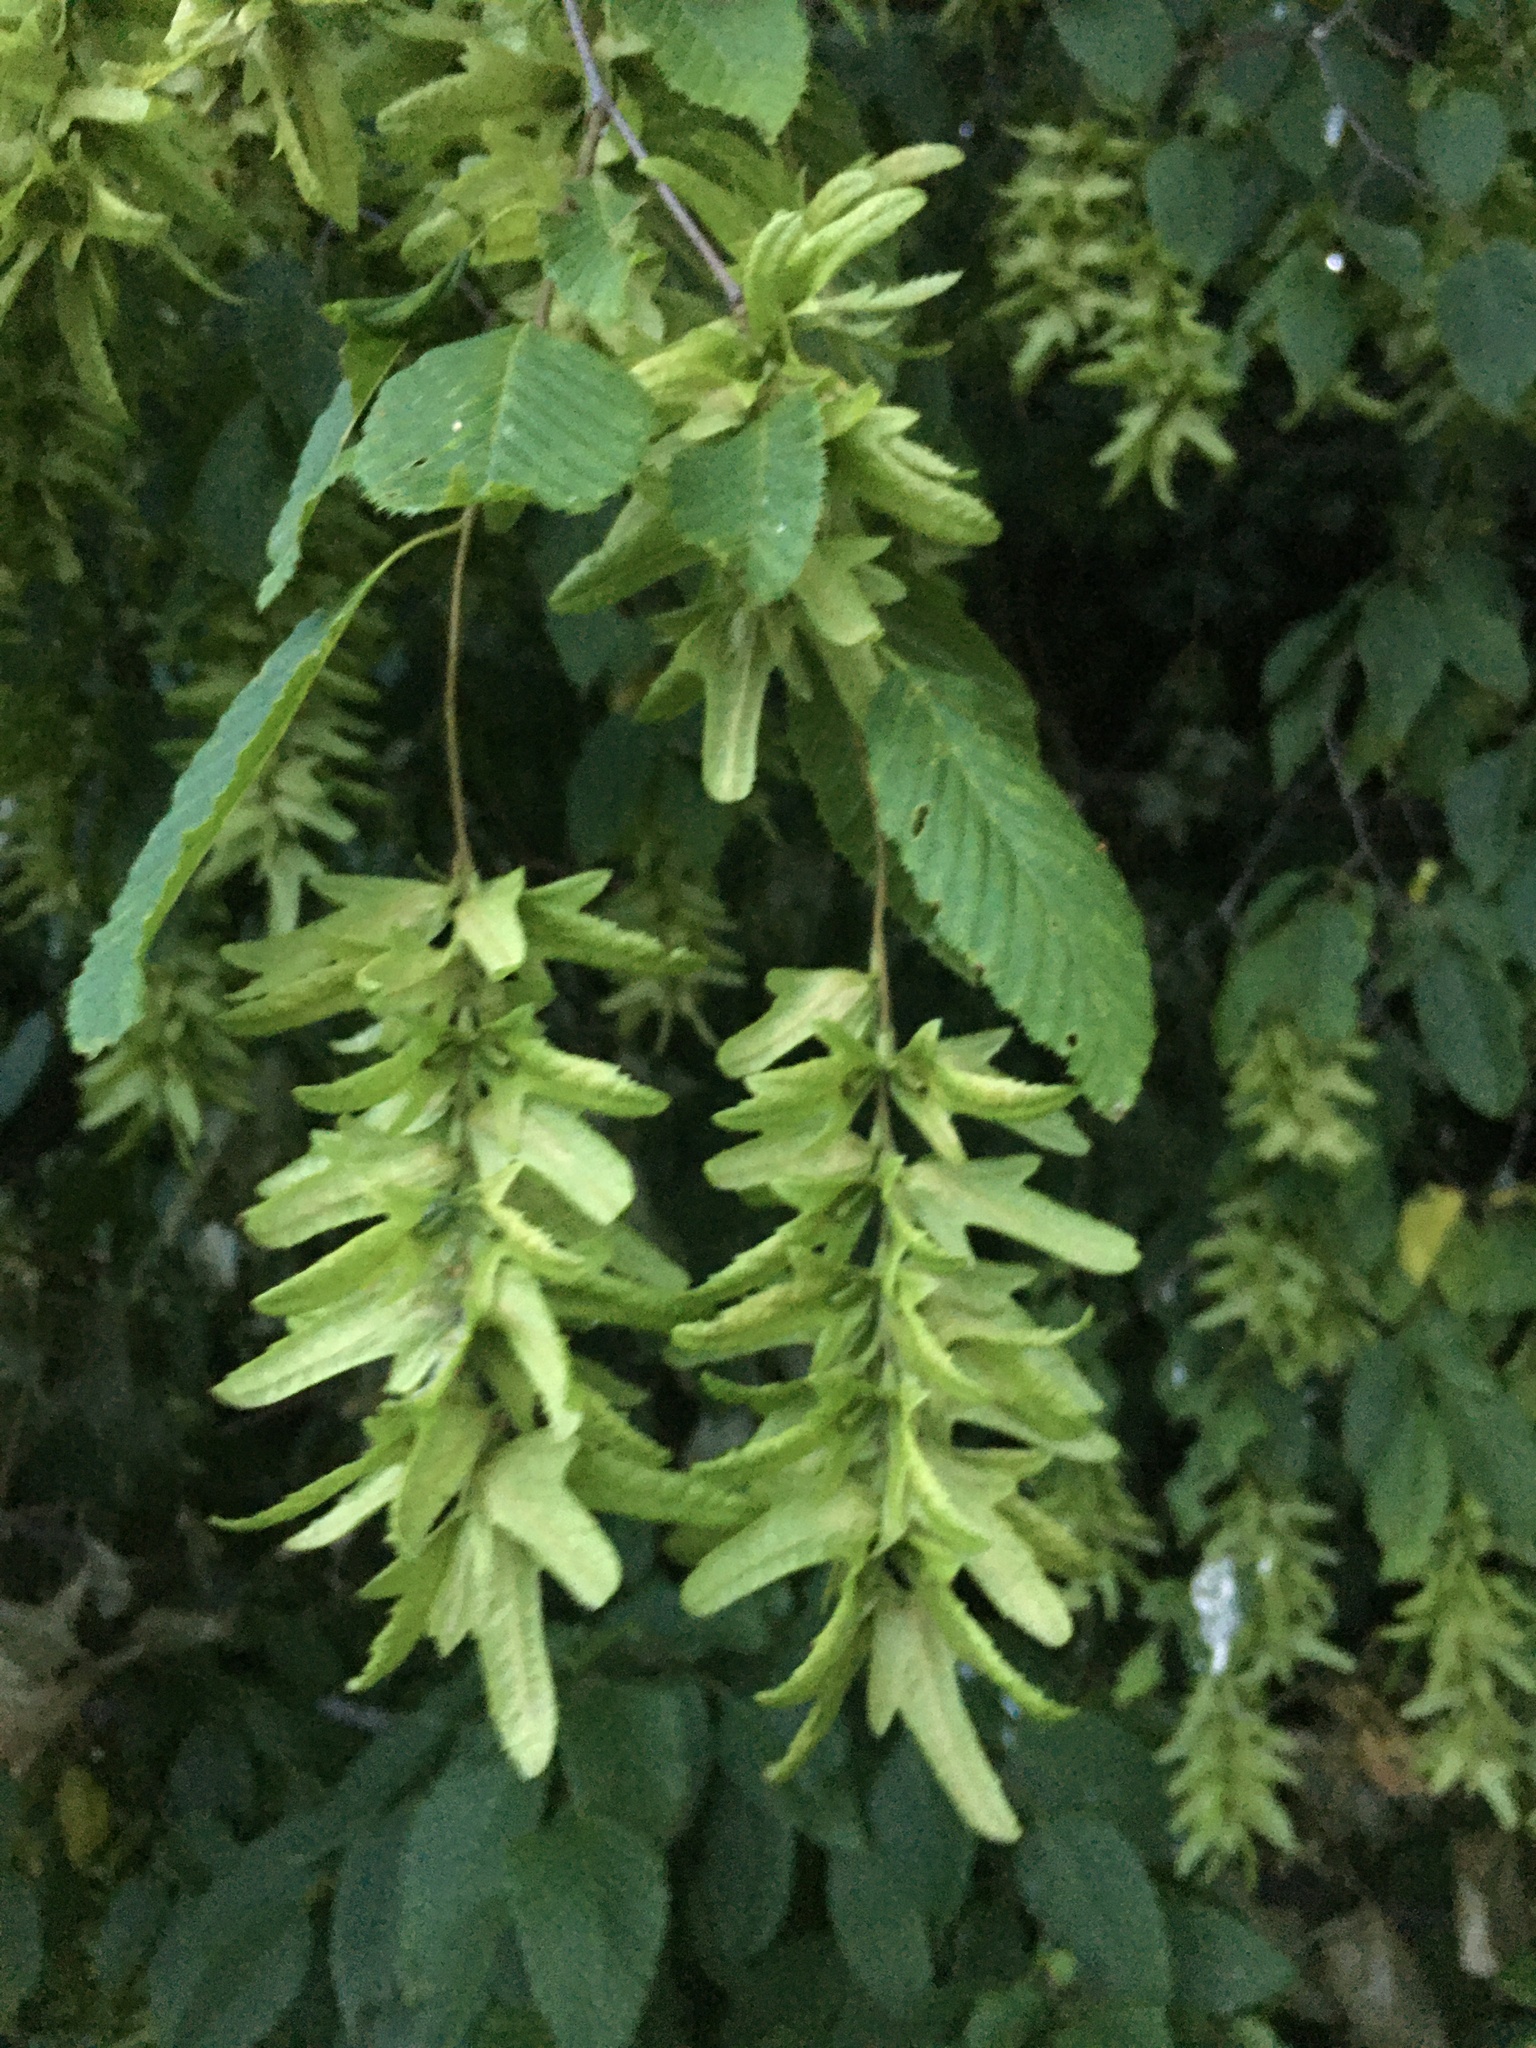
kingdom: Plantae
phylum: Tracheophyta
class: Magnoliopsida
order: Fagales
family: Betulaceae
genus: Carpinus
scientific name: Carpinus betulus
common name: Hornbeam
